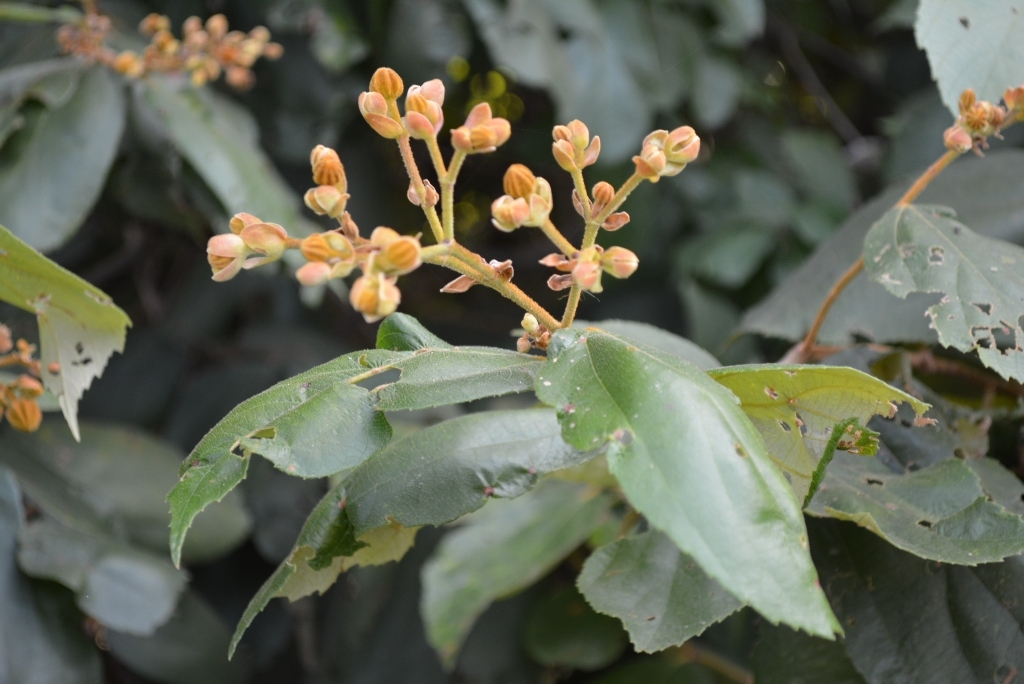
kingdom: Plantae
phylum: Tracheophyta
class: Magnoliopsida
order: Malvales
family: Malvaceae
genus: Luehea
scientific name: Luehea speciosa
